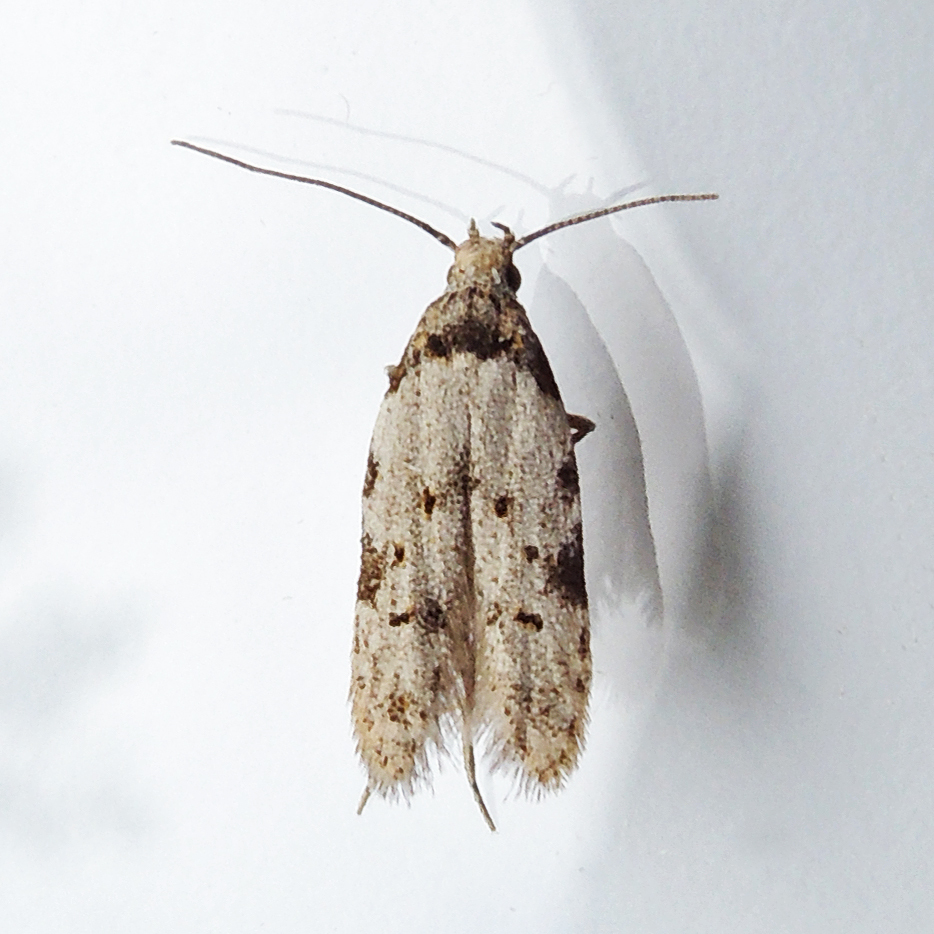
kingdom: Animalia
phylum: Arthropoda
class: Insecta
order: Lepidoptera
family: Autostichidae
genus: Taygete
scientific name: Taygete attributella
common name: Triangle-marked twirler moth
